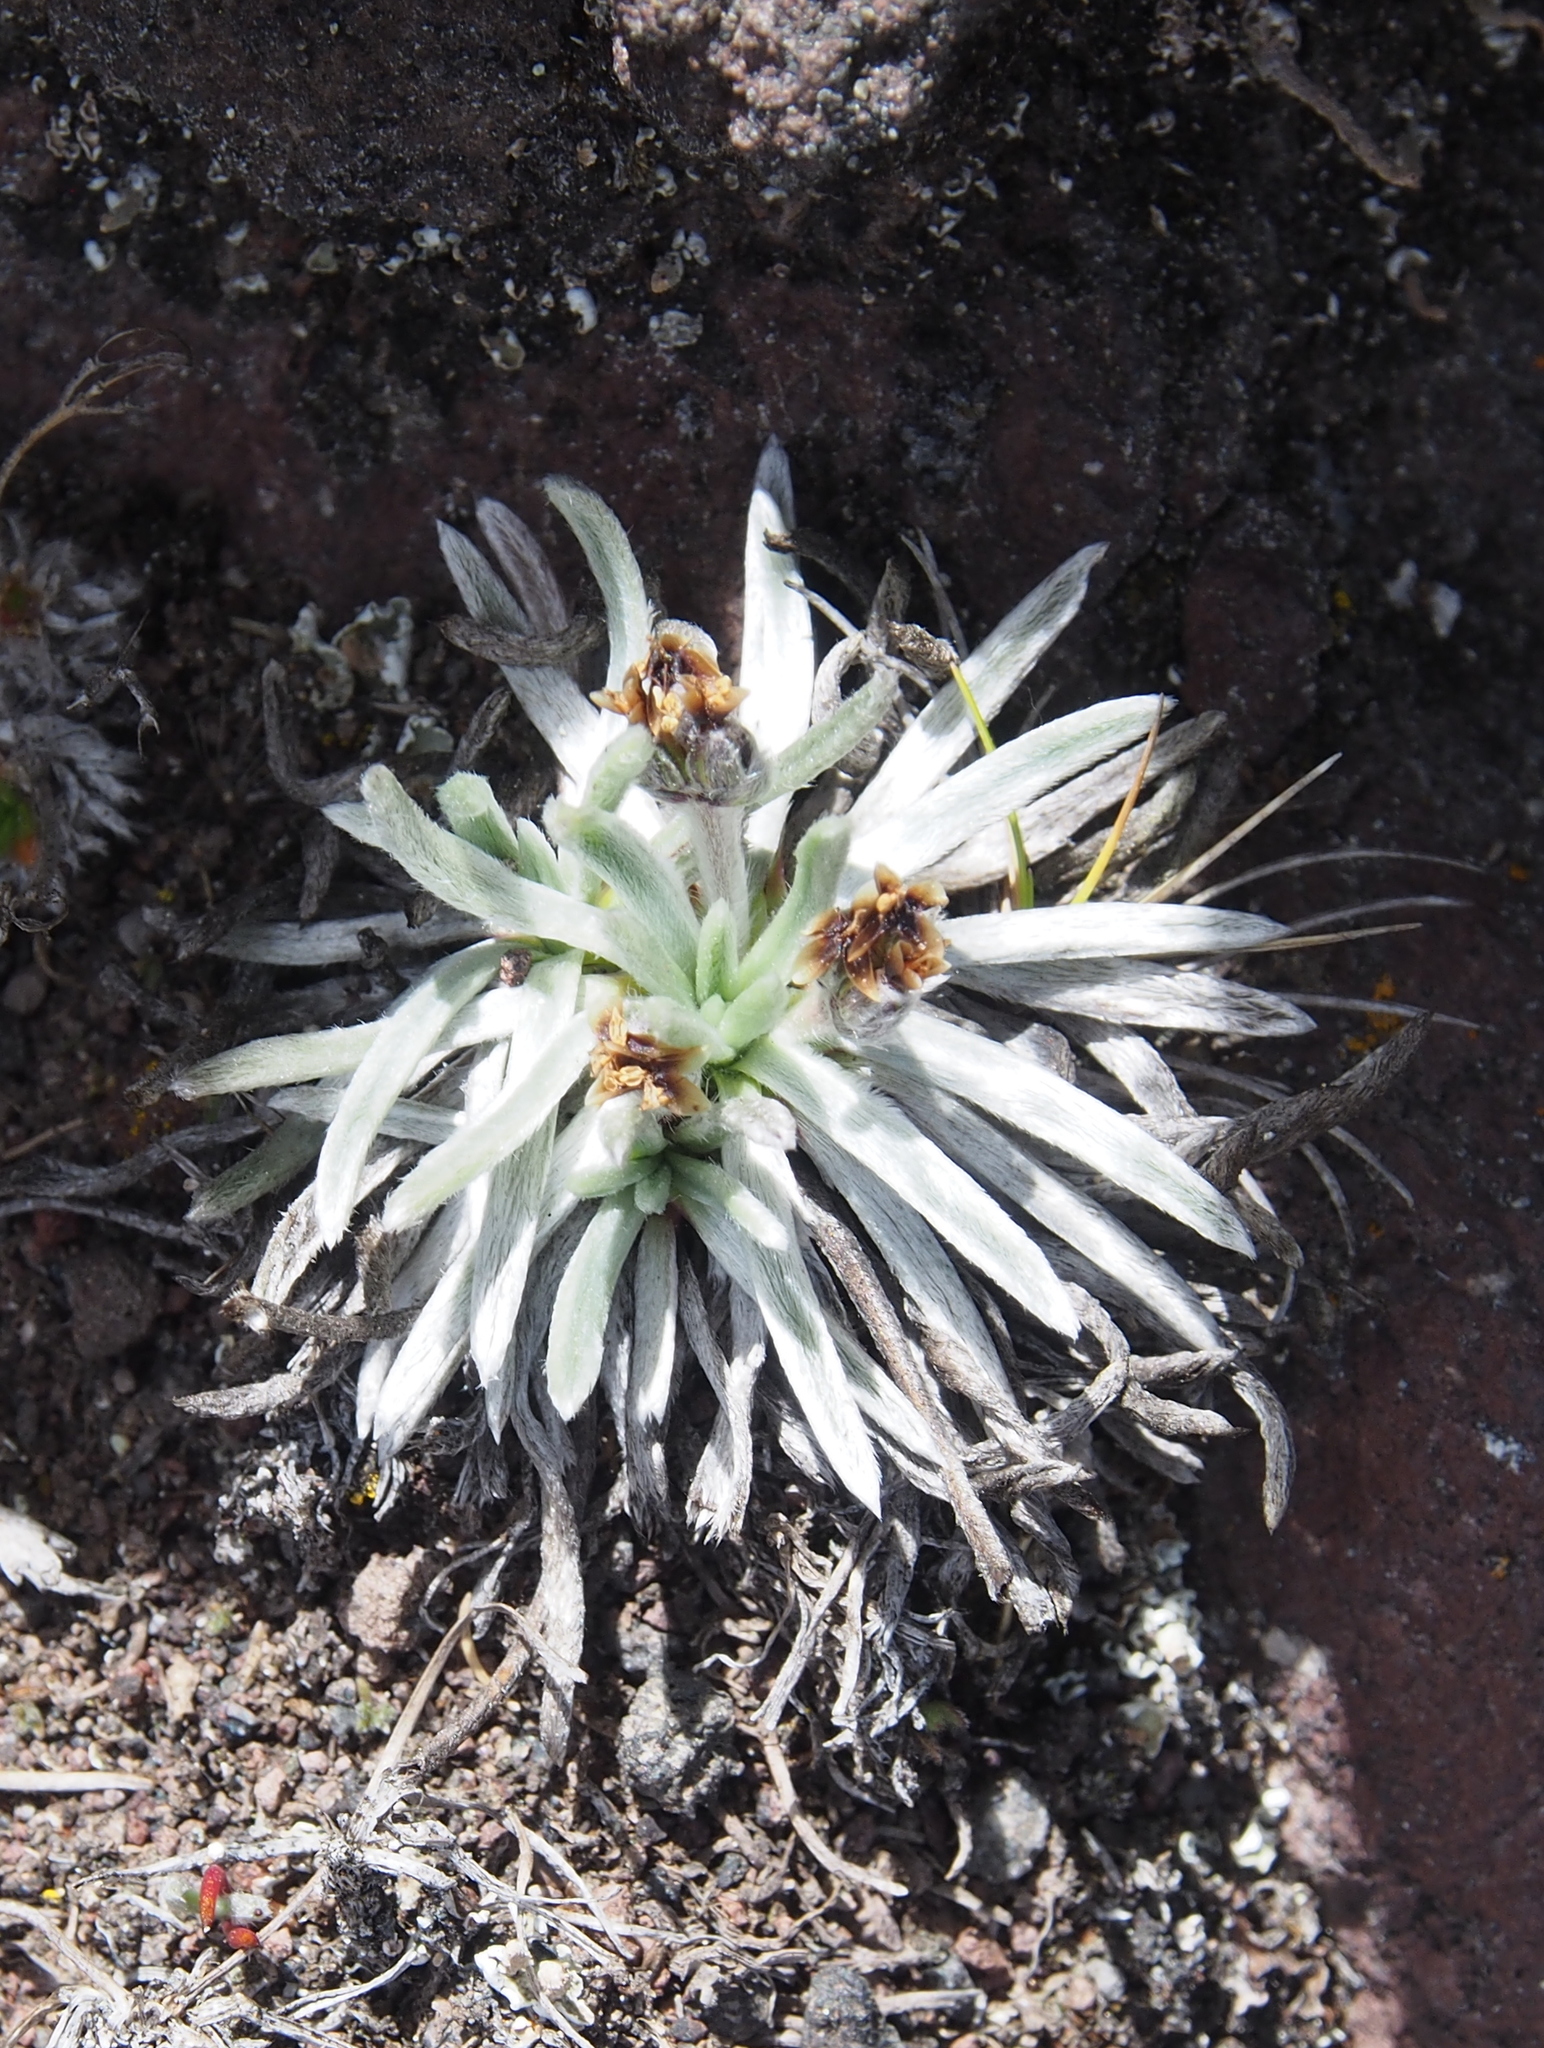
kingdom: Plantae
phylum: Tracheophyta
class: Magnoliopsida
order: Lamiales
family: Plantaginaceae
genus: Plantago
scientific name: Plantago sericea
